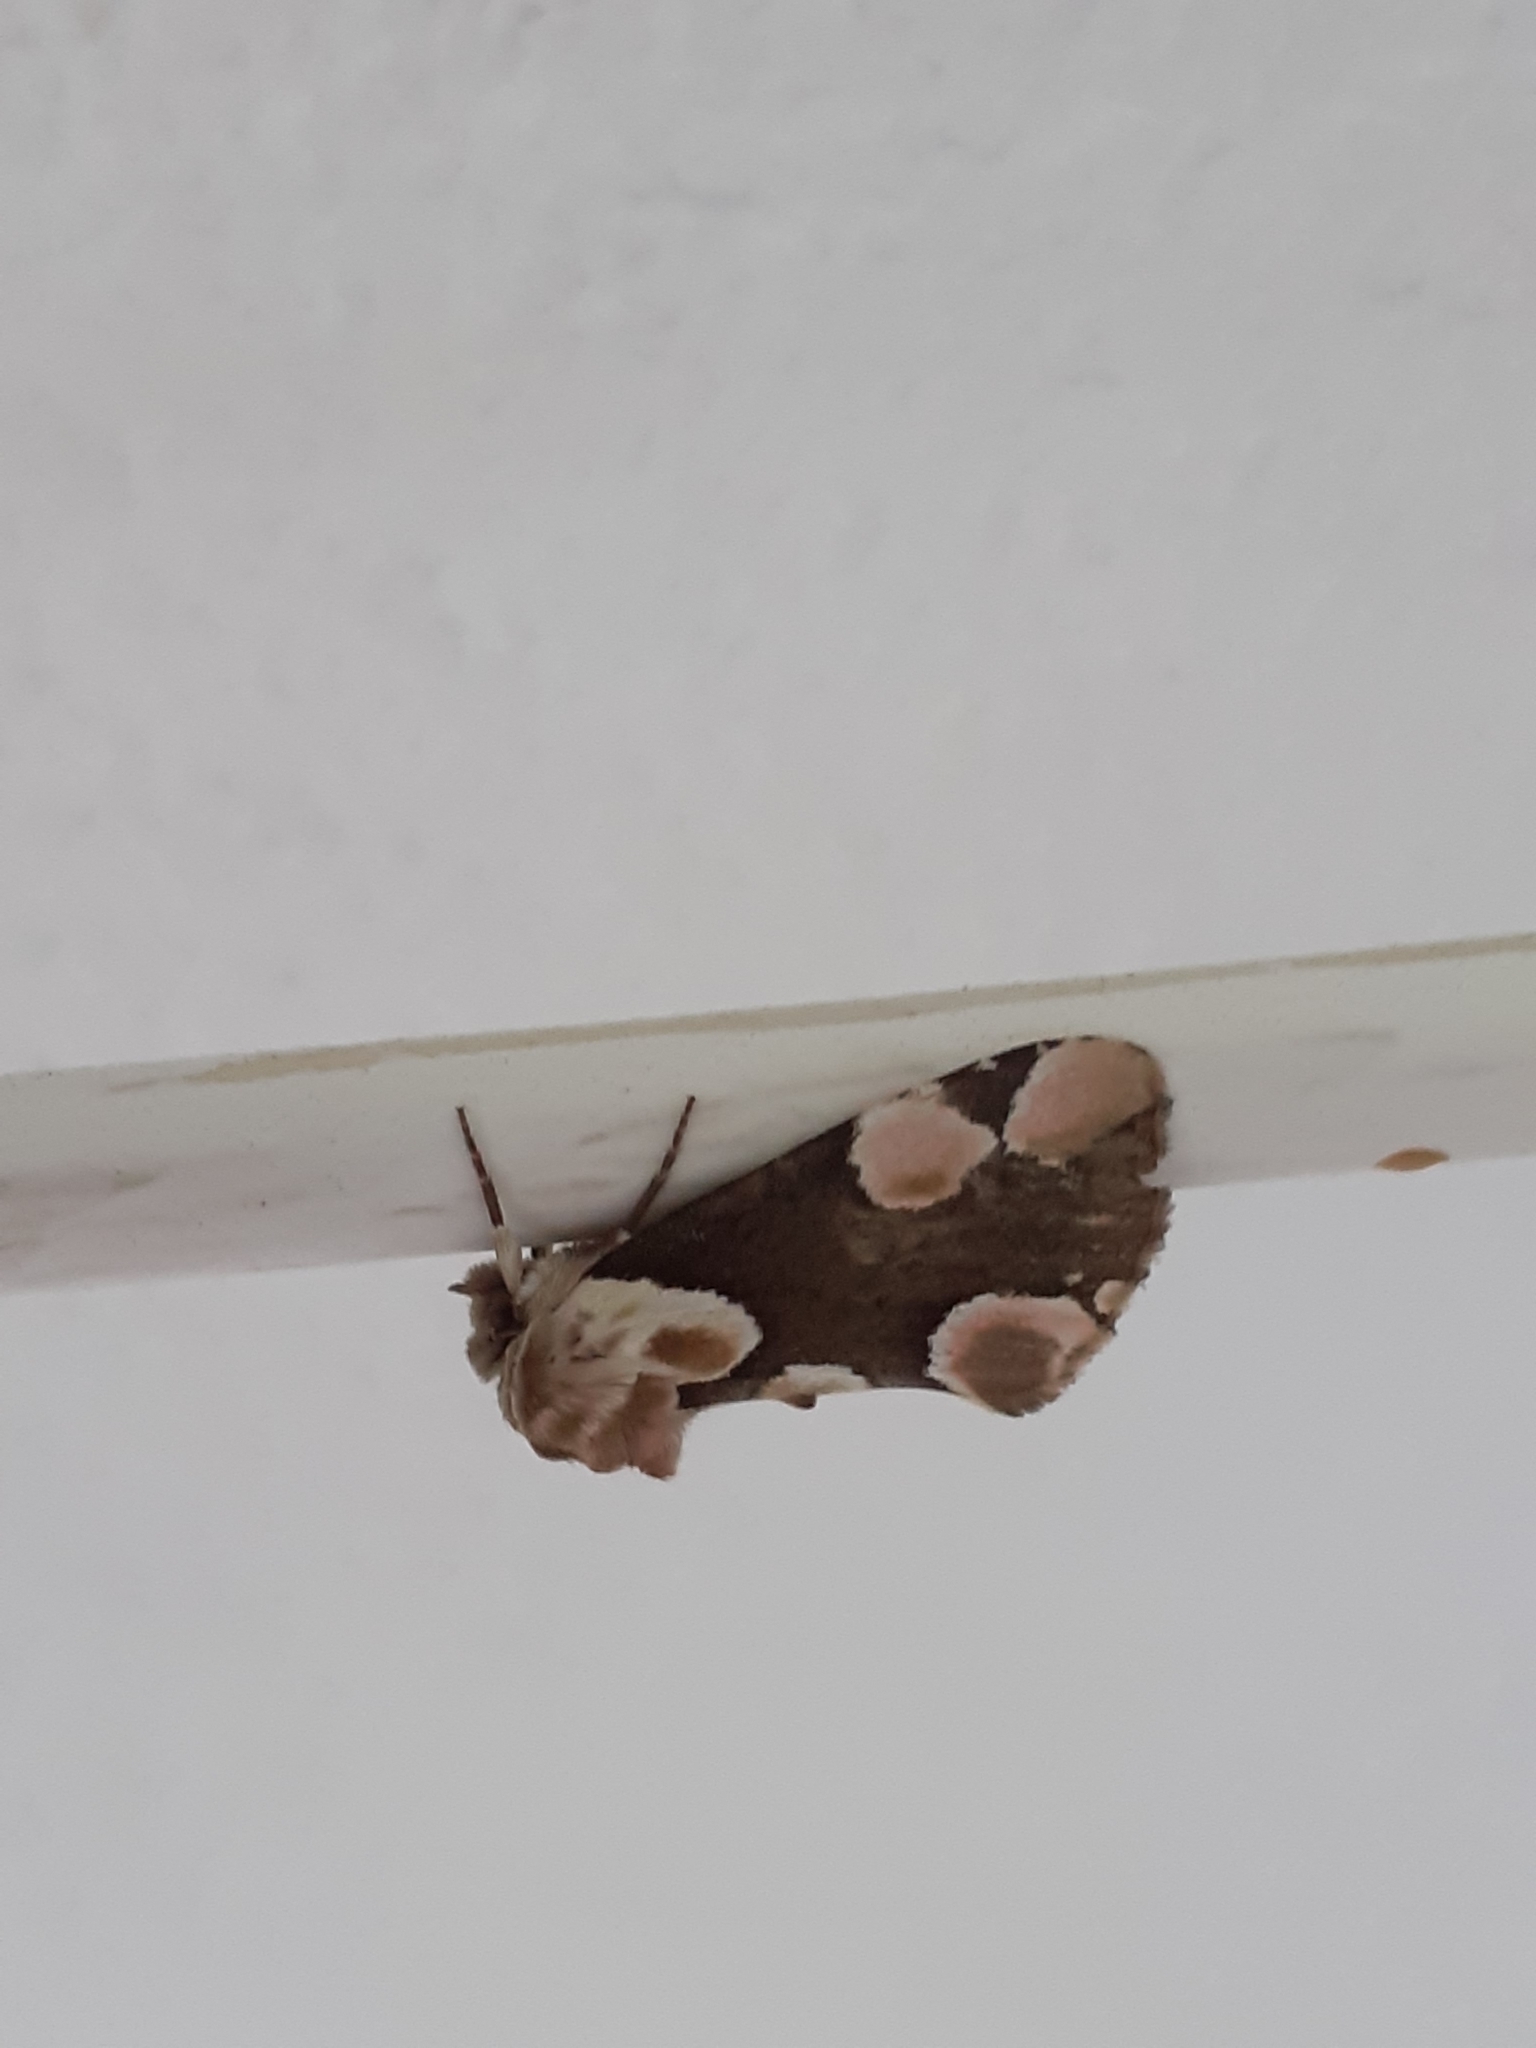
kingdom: Animalia
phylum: Arthropoda
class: Insecta
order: Lepidoptera
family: Drepanidae
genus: Thyatira
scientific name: Thyatira batis
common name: Peach blossom
